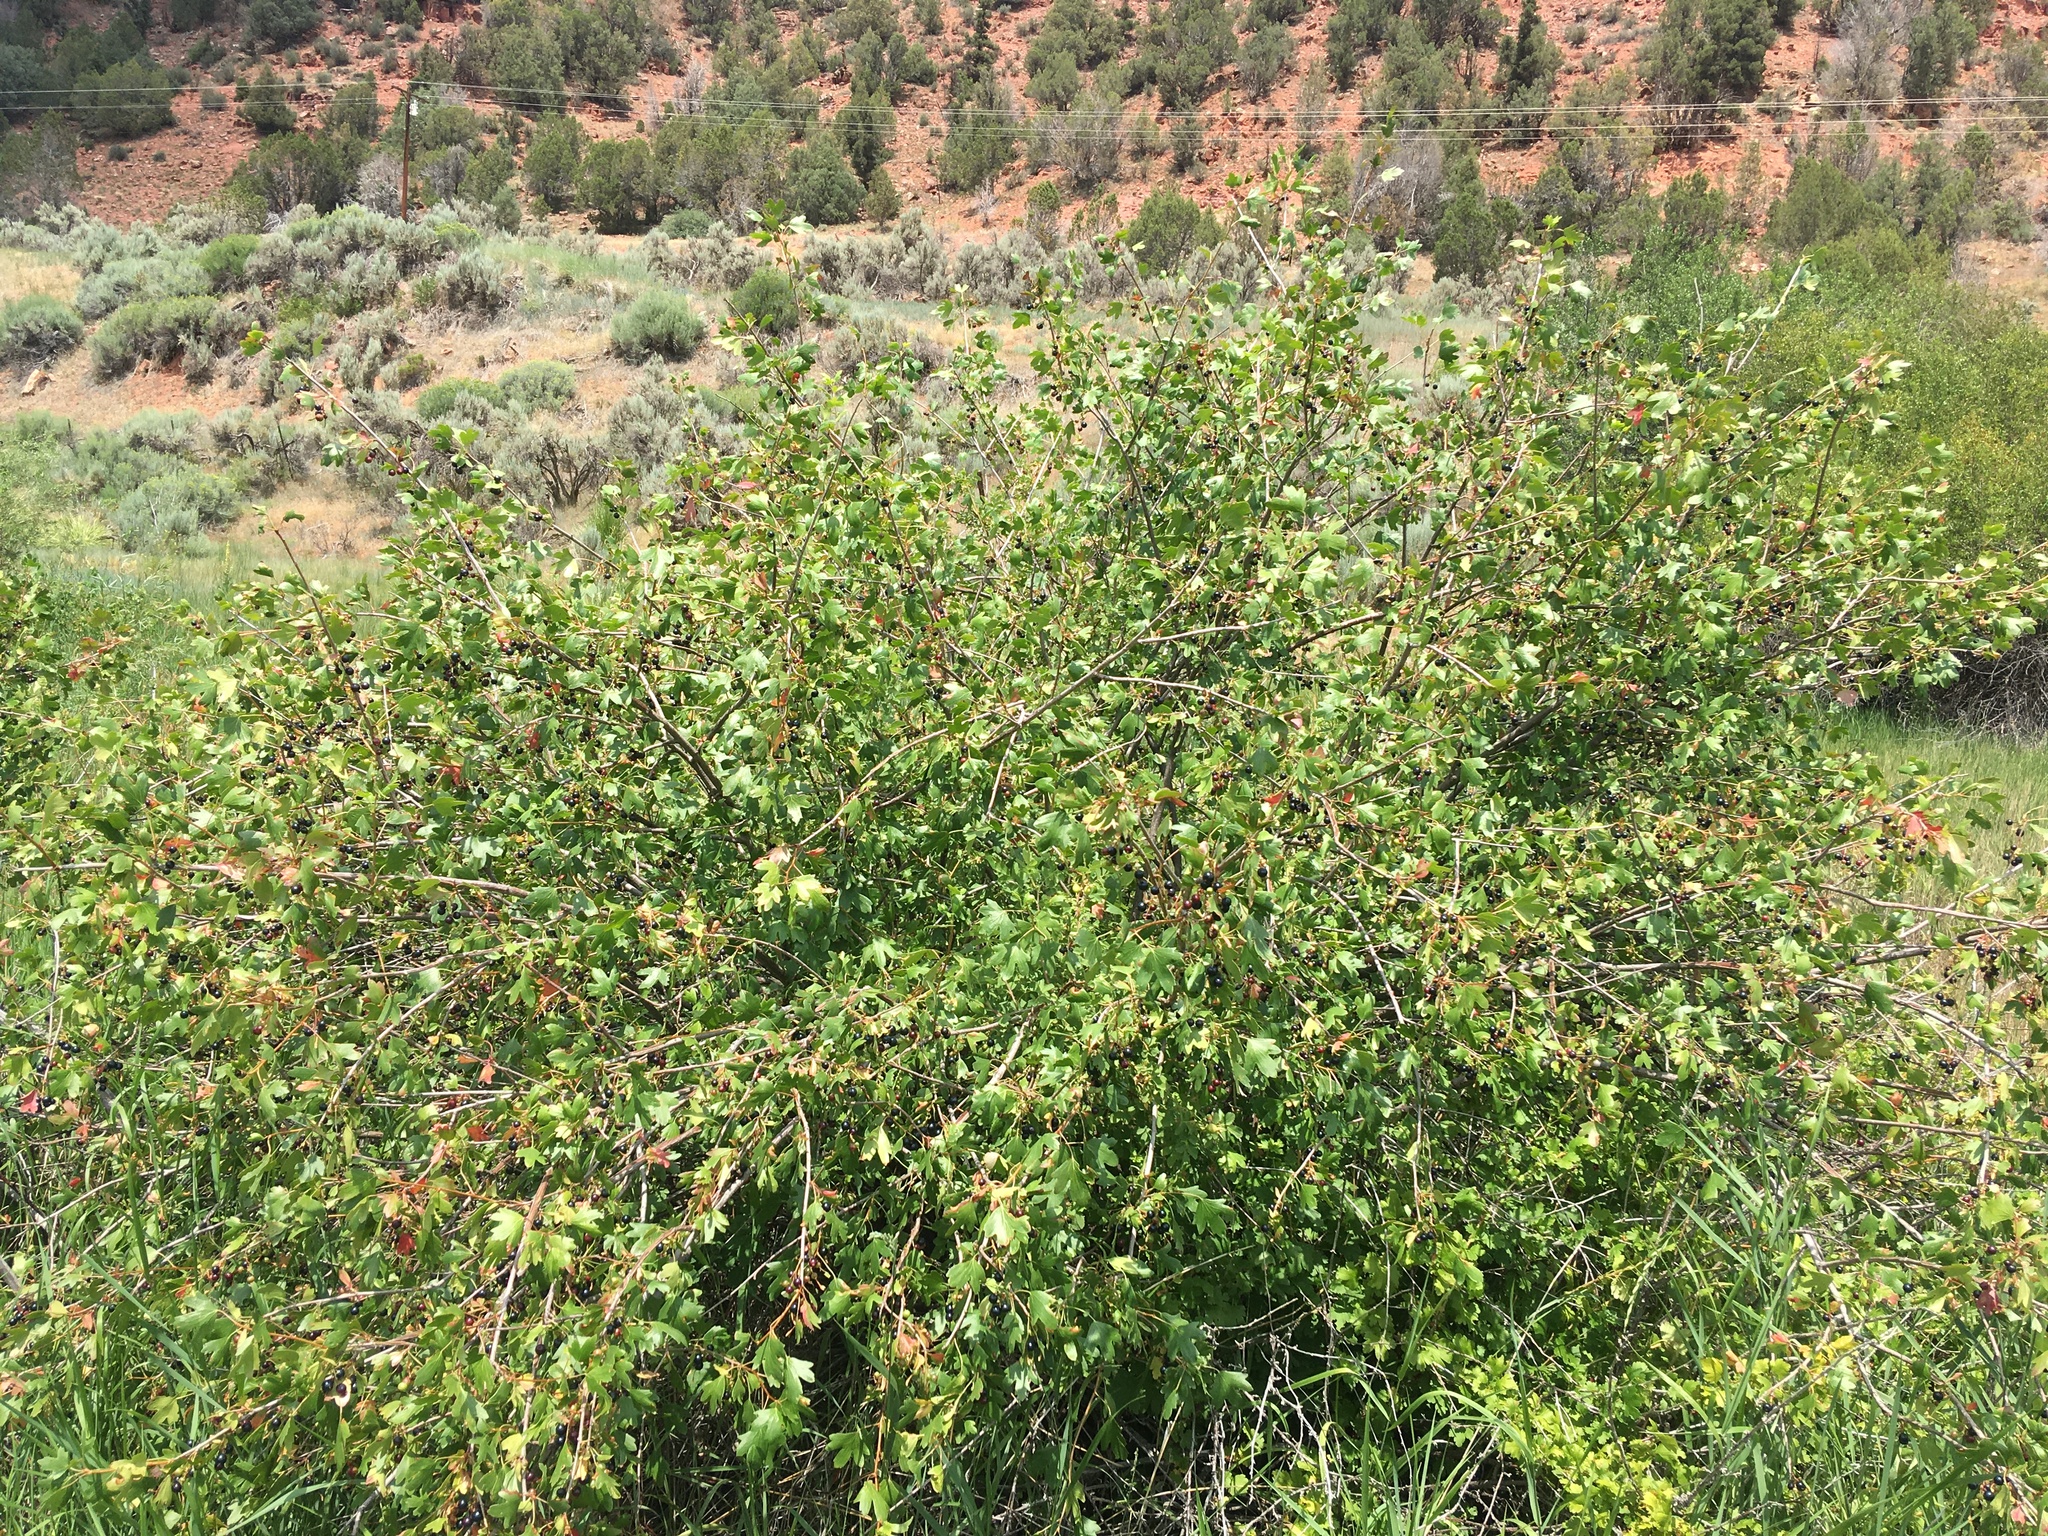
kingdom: Plantae
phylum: Tracheophyta
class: Magnoliopsida
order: Saxifragales
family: Grossulariaceae
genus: Ribes
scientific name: Ribes aureum
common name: Golden currant
